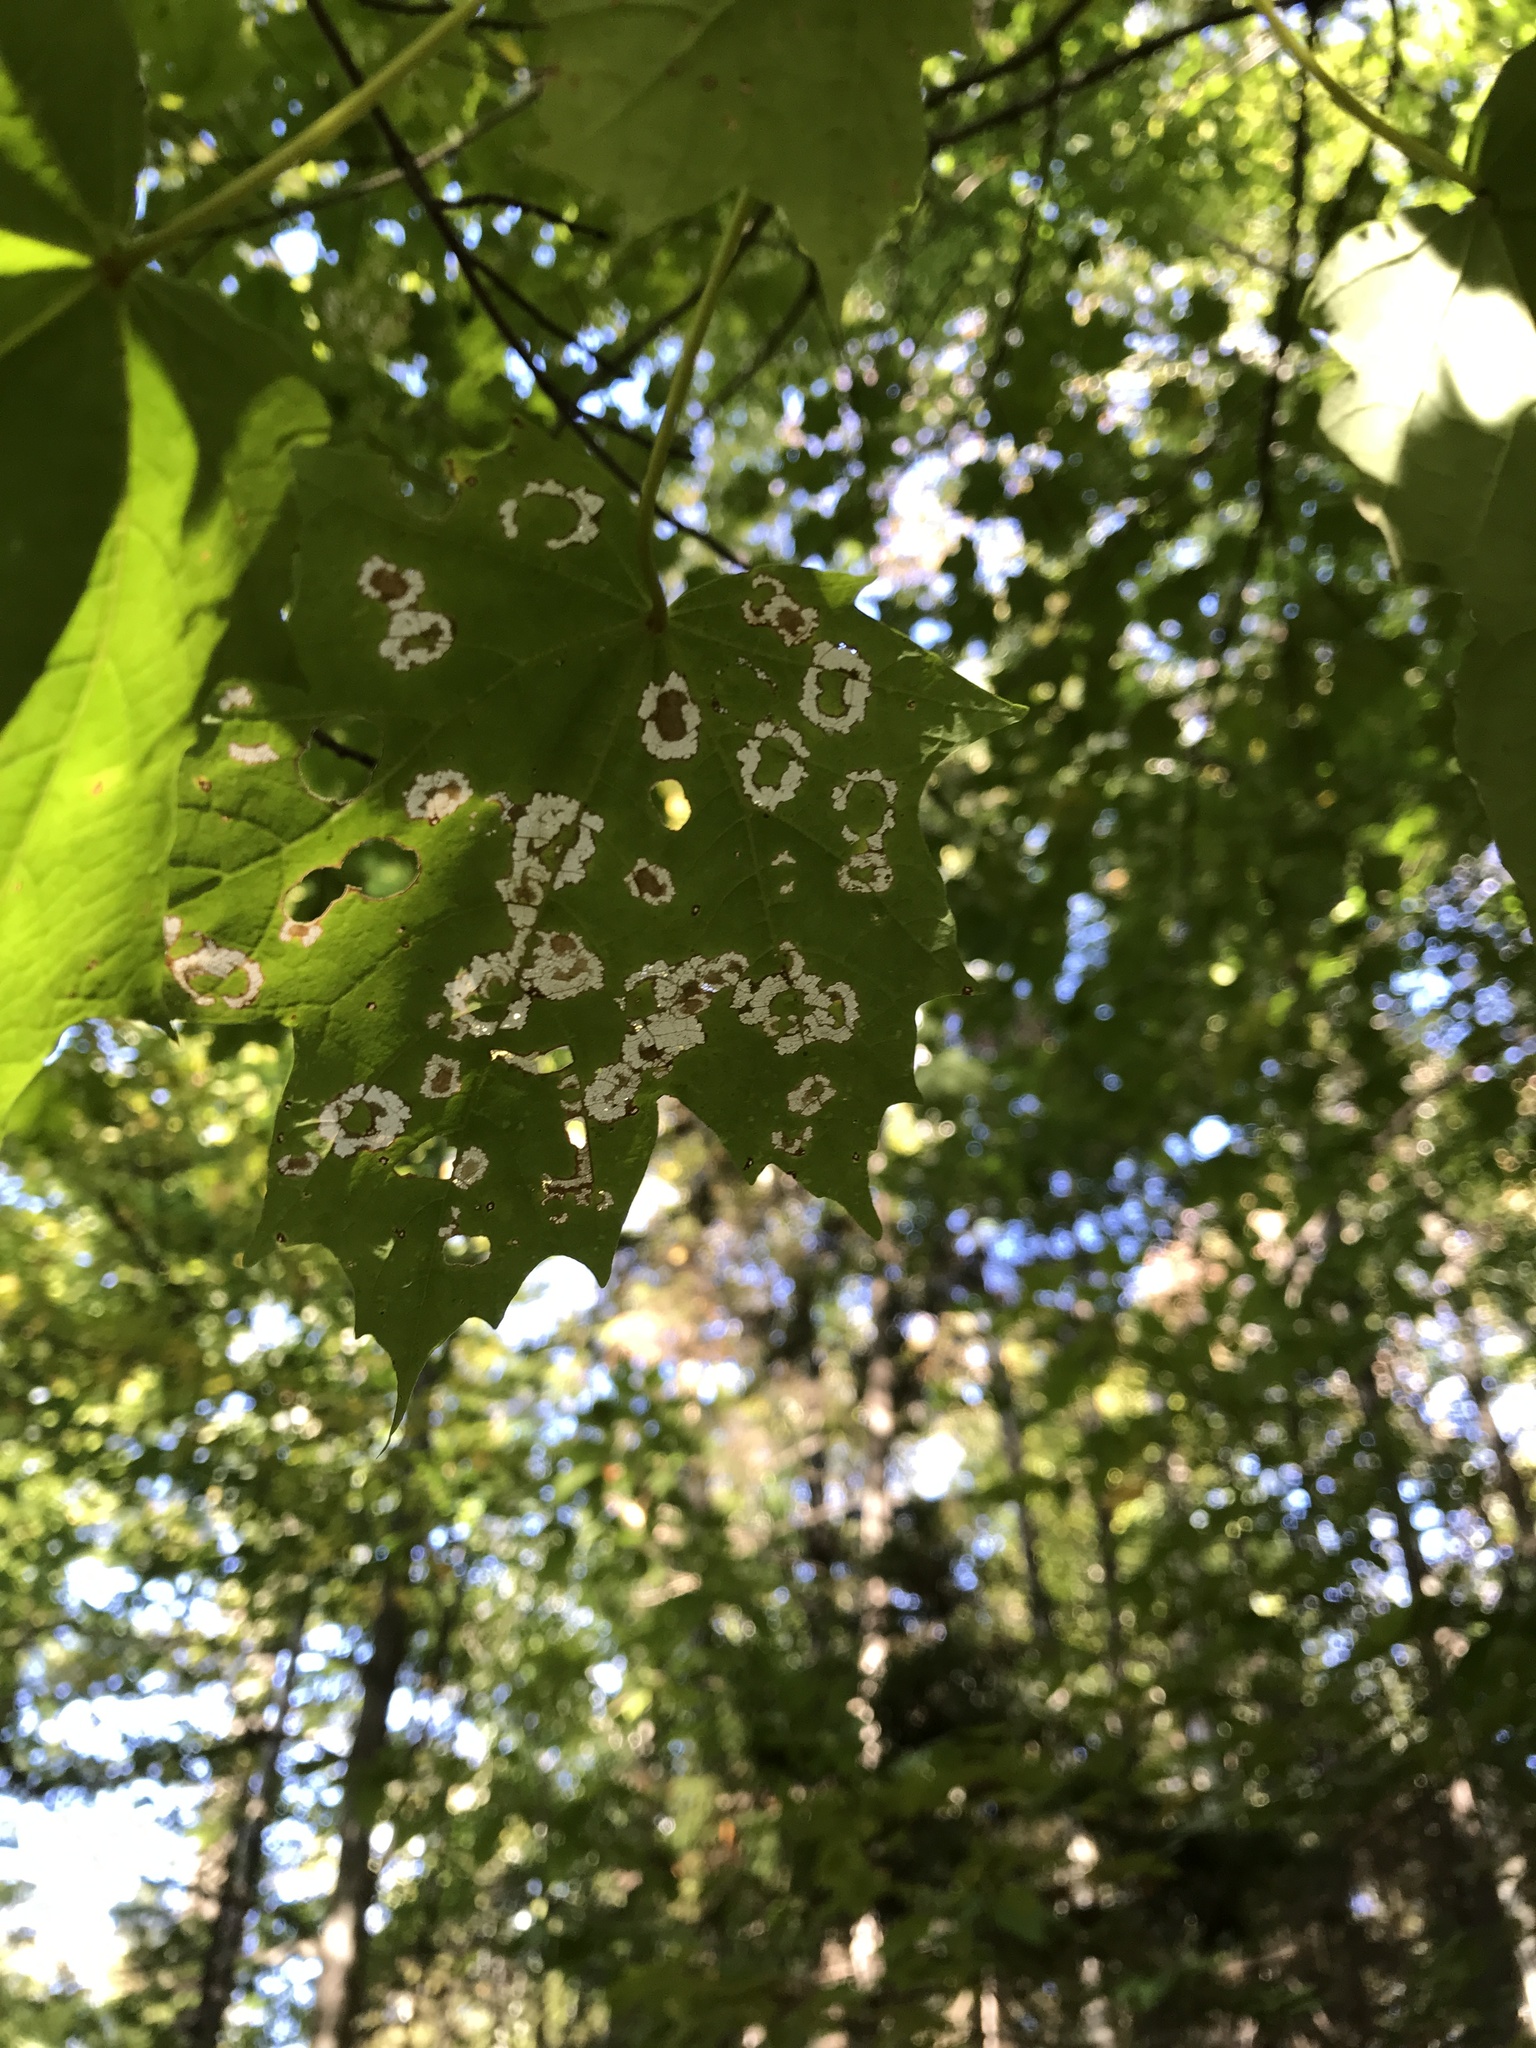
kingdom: Plantae
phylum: Tracheophyta
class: Magnoliopsida
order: Sapindales
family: Sapindaceae
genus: Acer
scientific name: Acer saccharum
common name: Sugar maple
